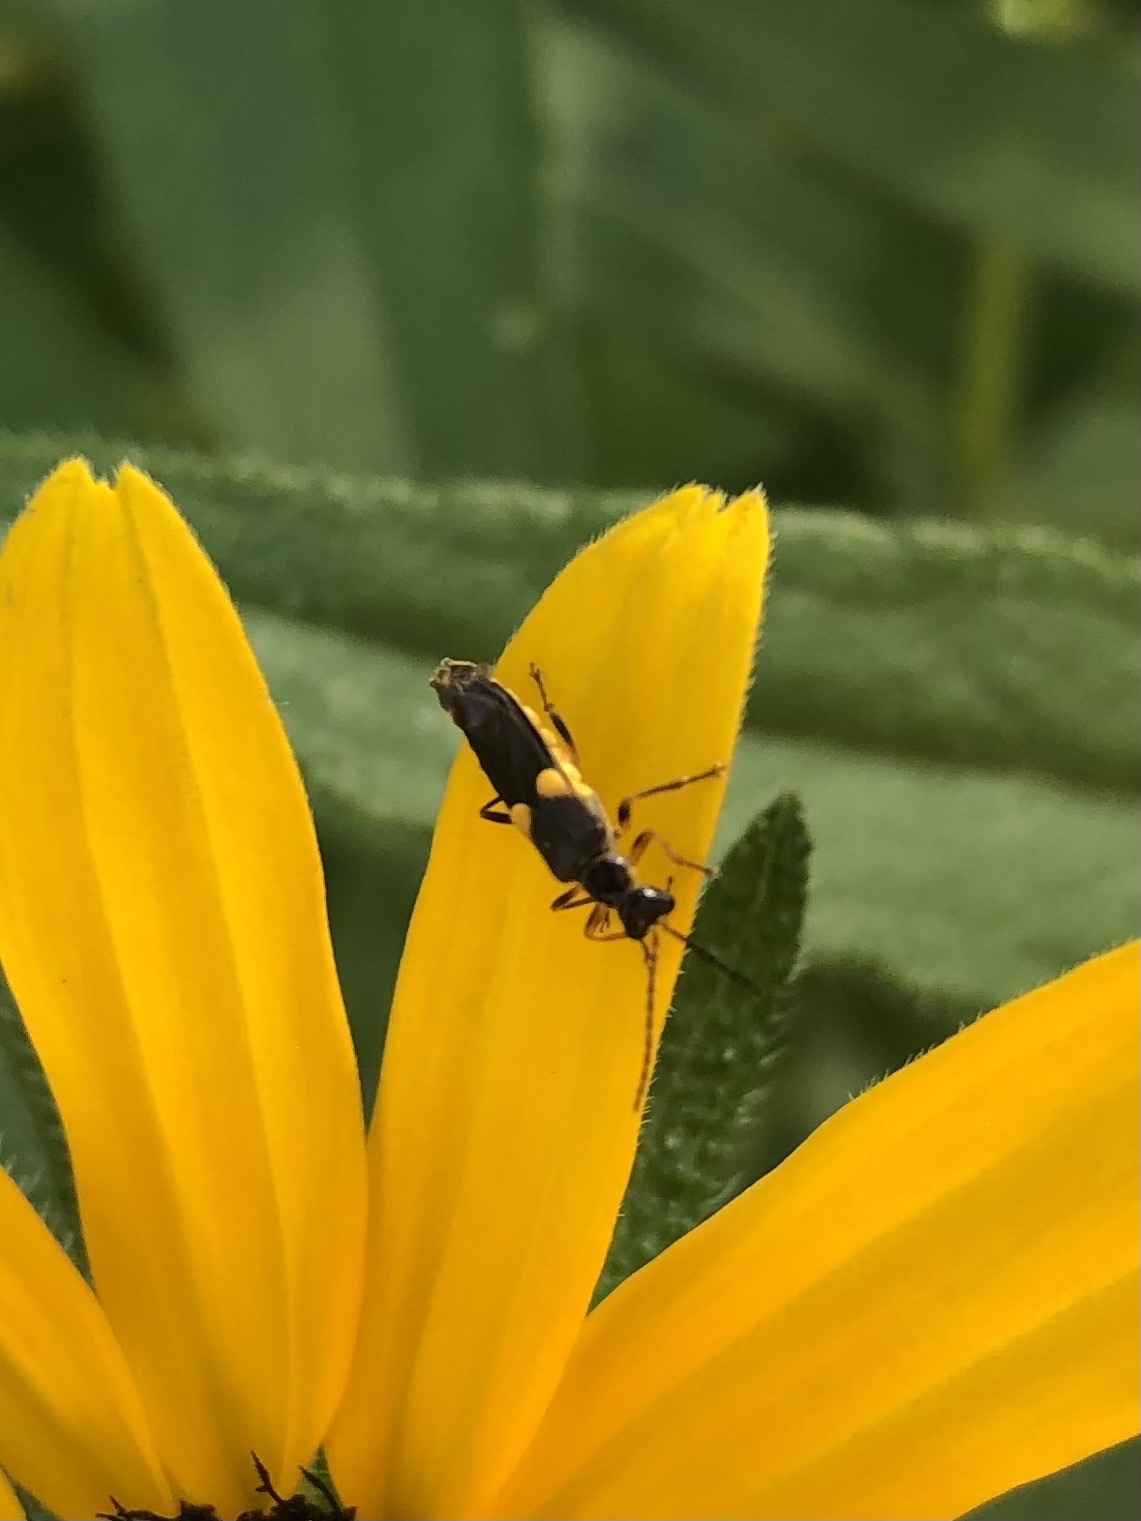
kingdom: Animalia
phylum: Arthropoda
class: Insecta
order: Coleoptera
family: Cantharidae
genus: Trypherus
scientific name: Trypherus
